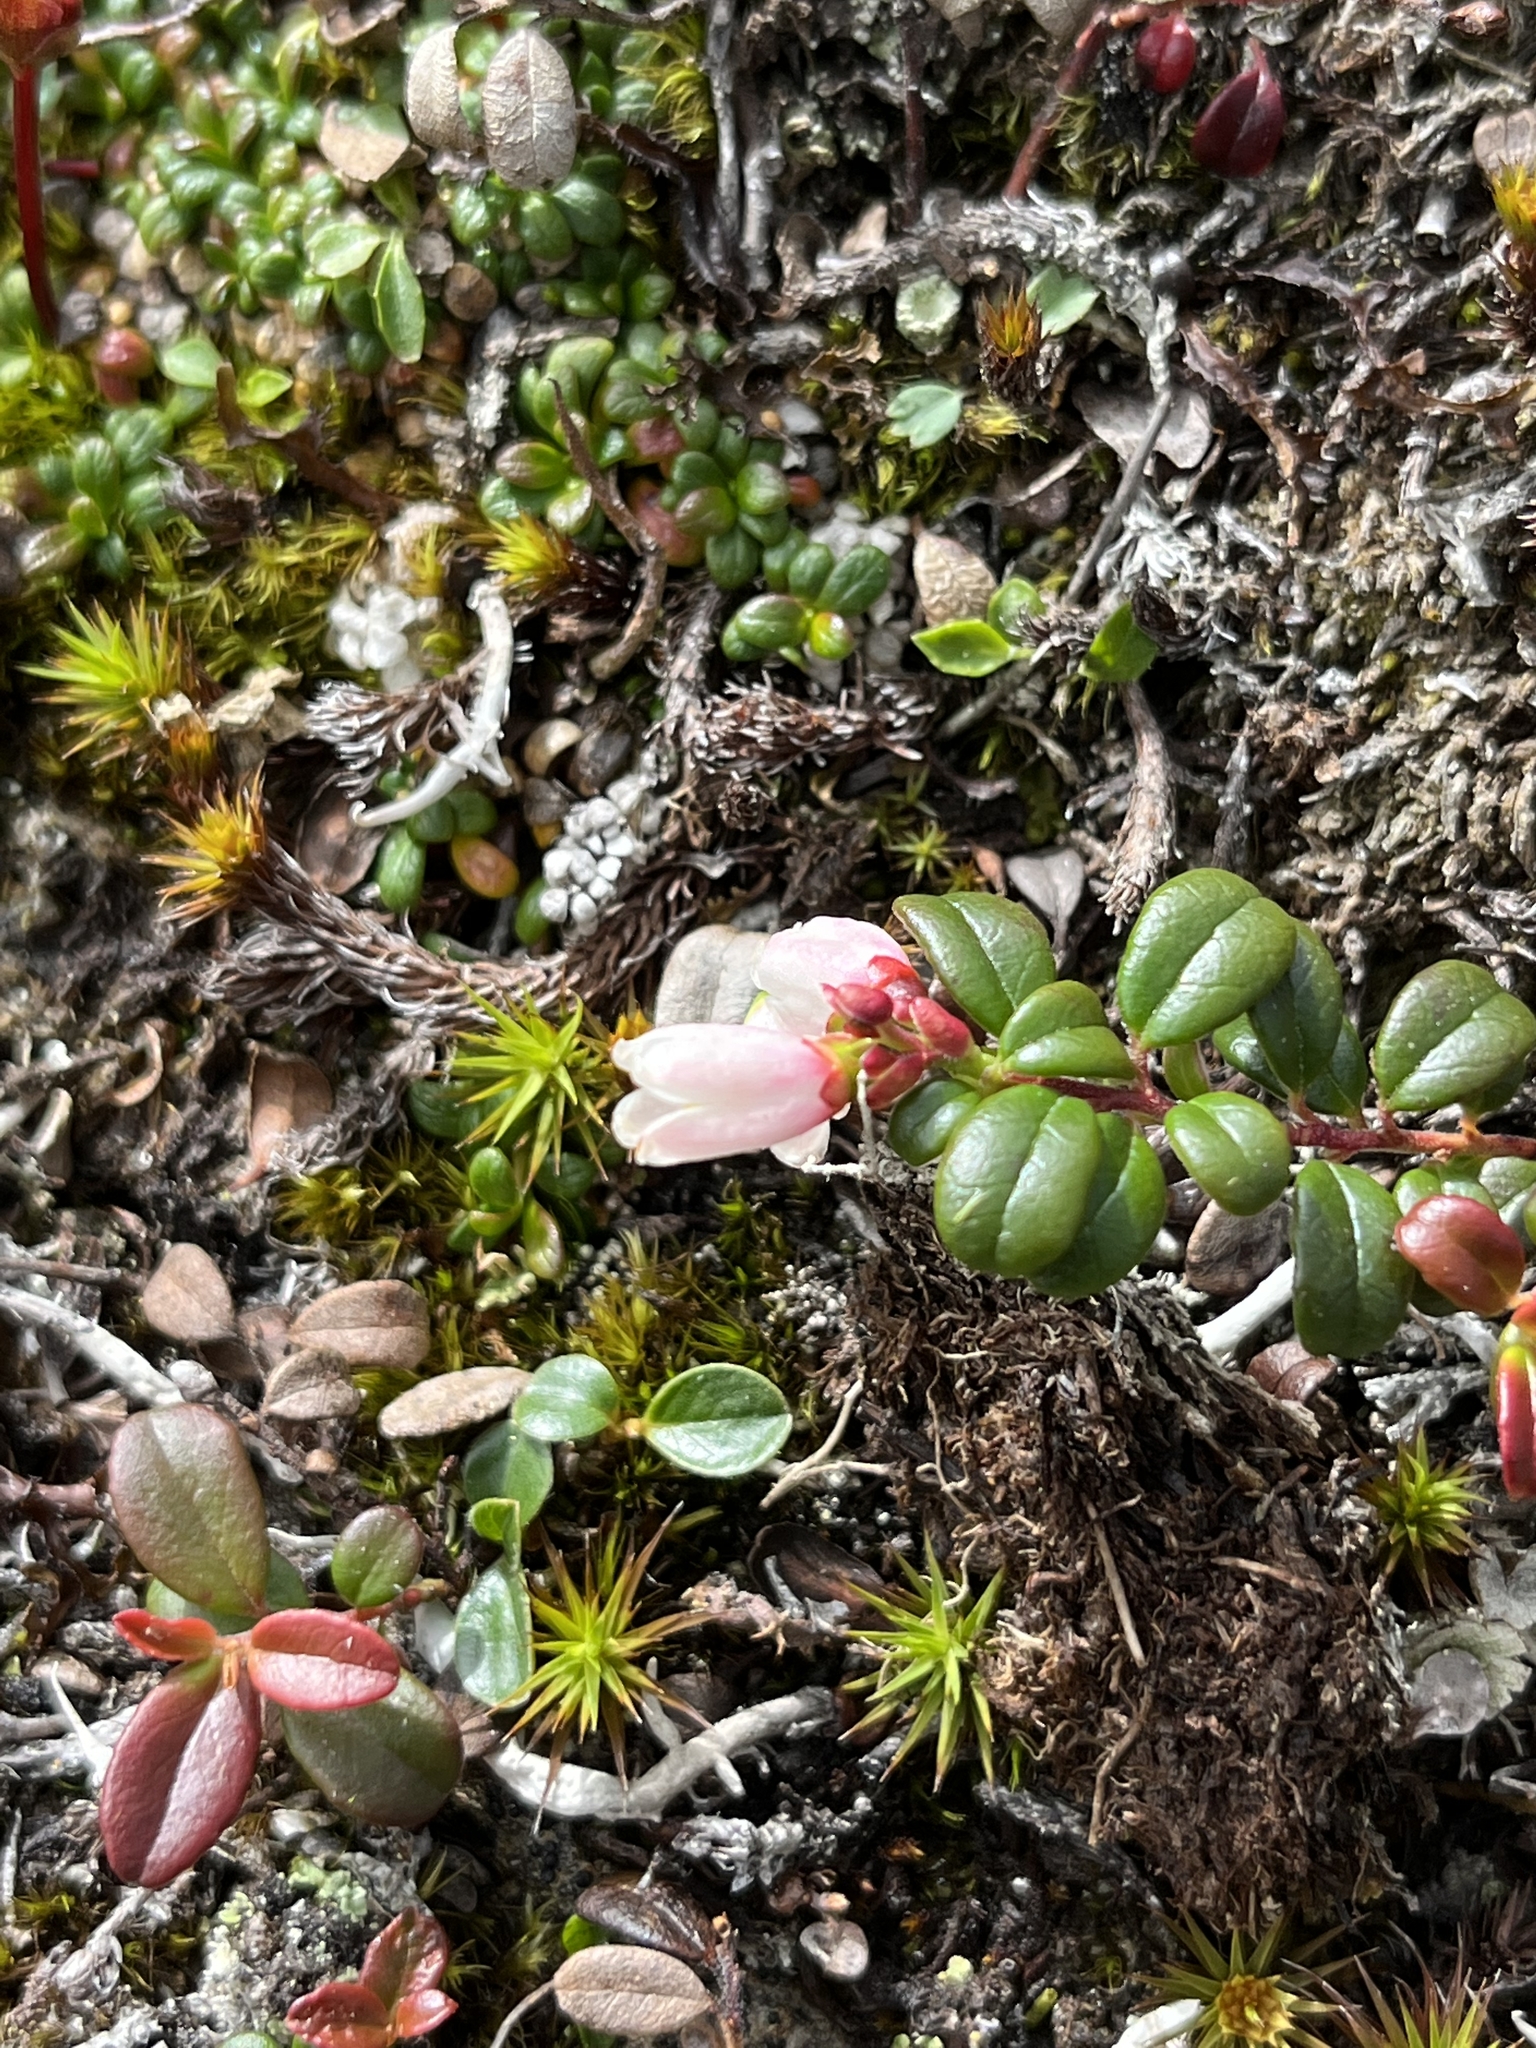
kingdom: Plantae
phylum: Tracheophyta
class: Magnoliopsida
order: Ericales
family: Ericaceae
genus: Vaccinium
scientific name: Vaccinium vitis-idaea
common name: Cowberry
